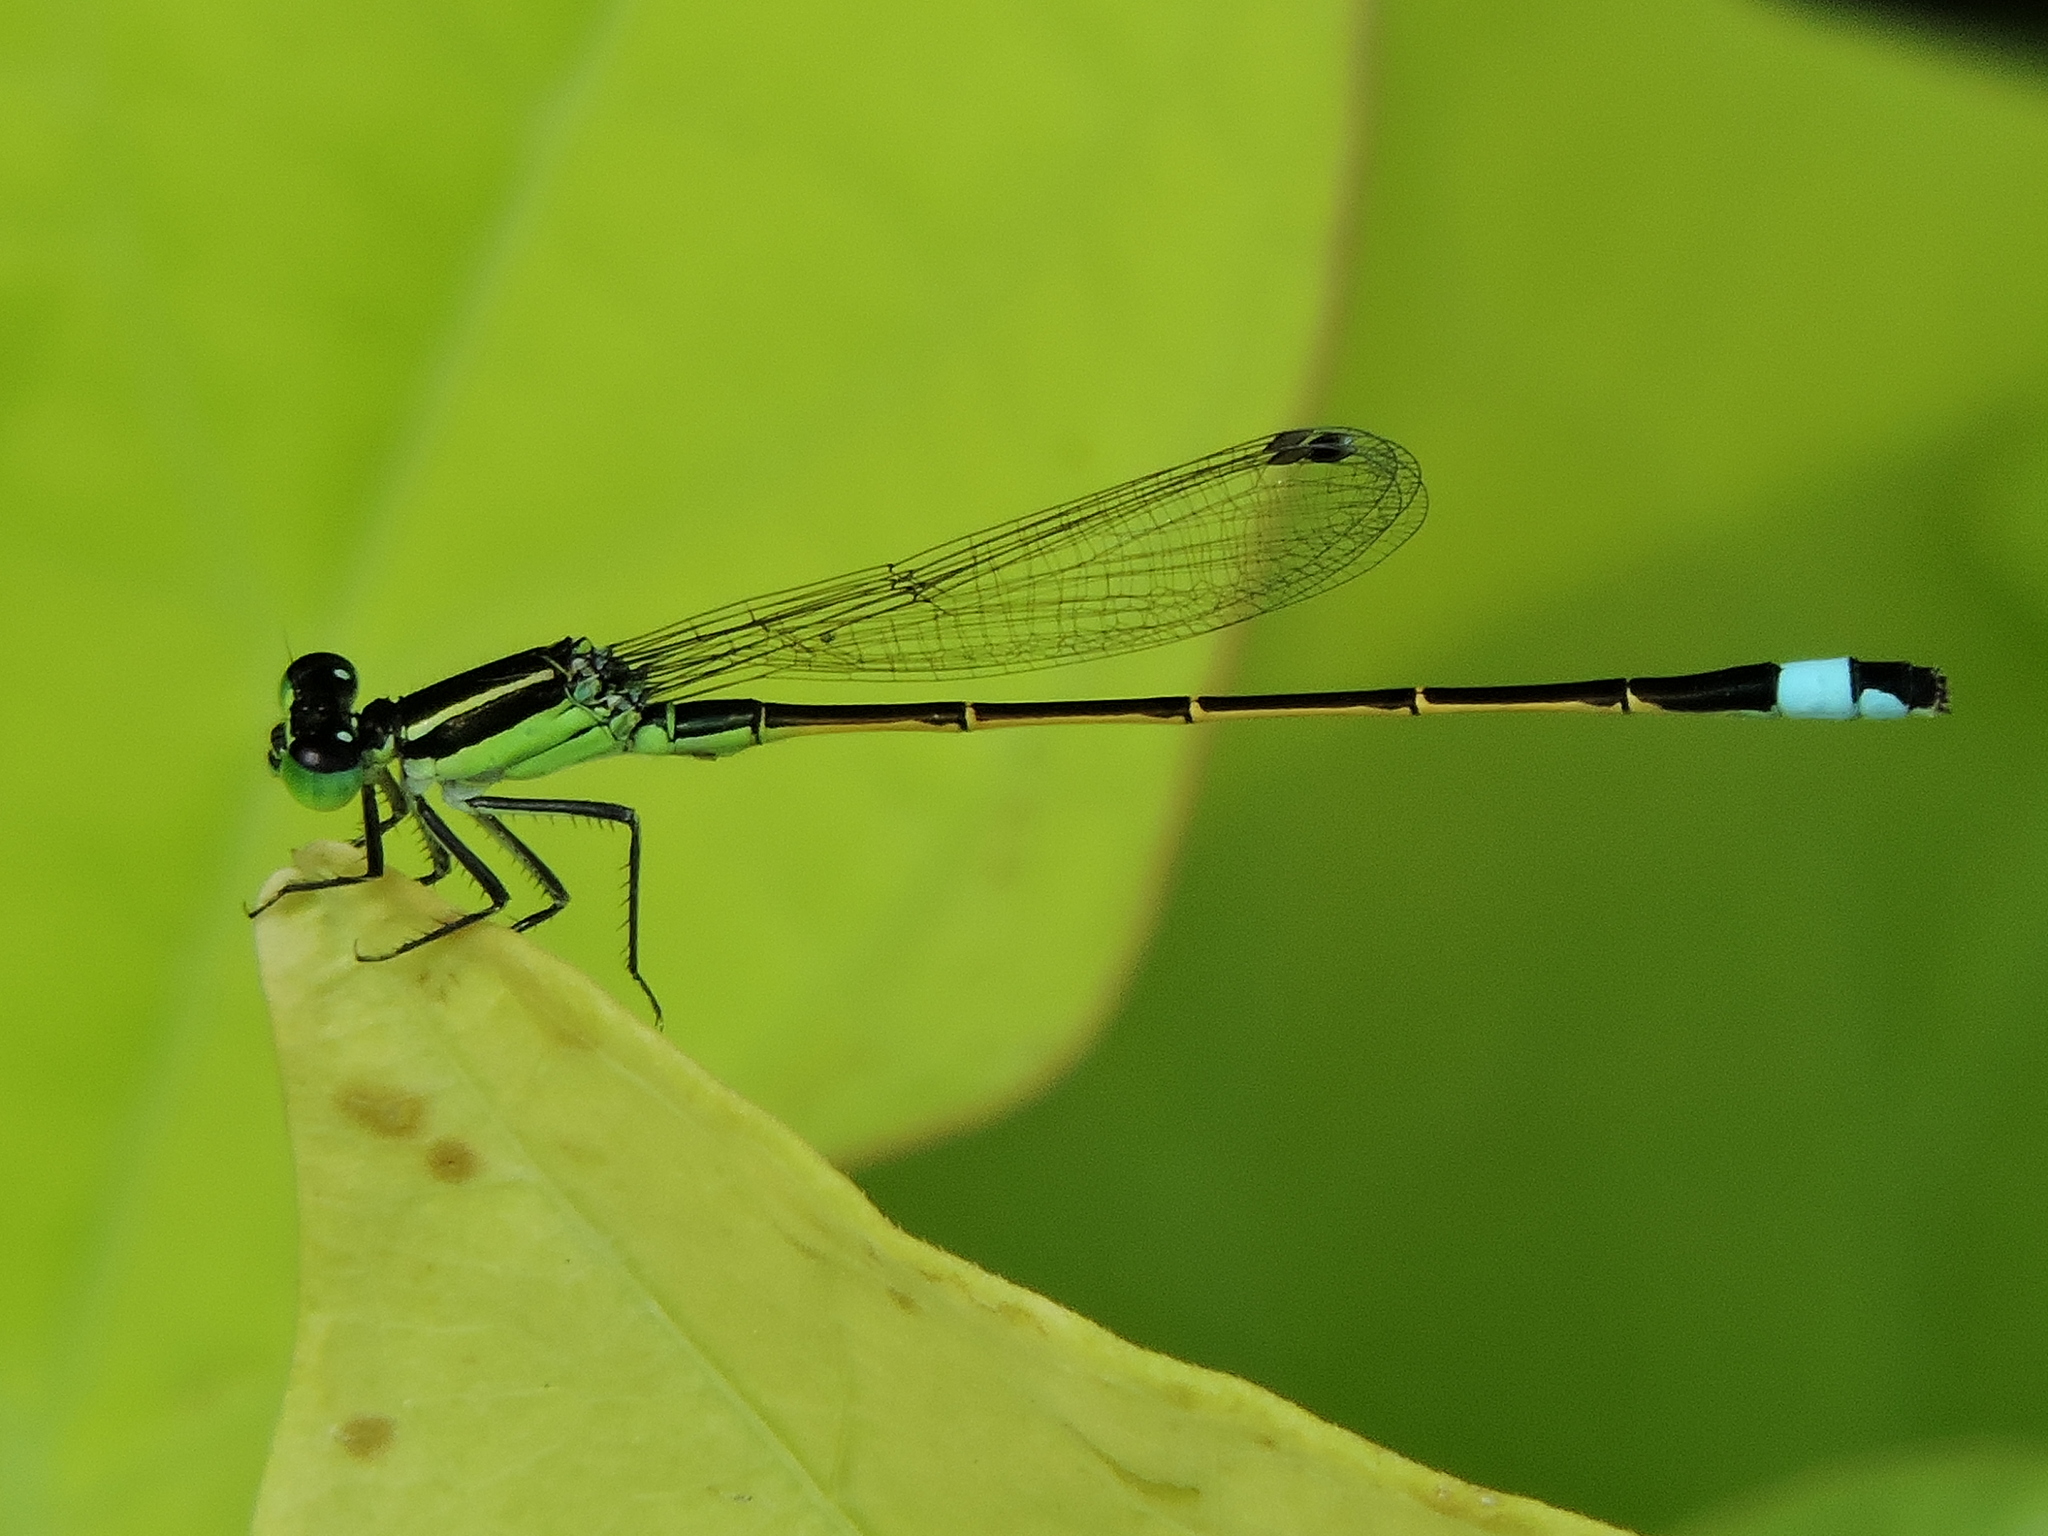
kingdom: Animalia
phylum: Arthropoda
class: Insecta
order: Odonata
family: Coenagrionidae
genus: Ischnura
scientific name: Ischnura ramburii
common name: Rambur's forktail
